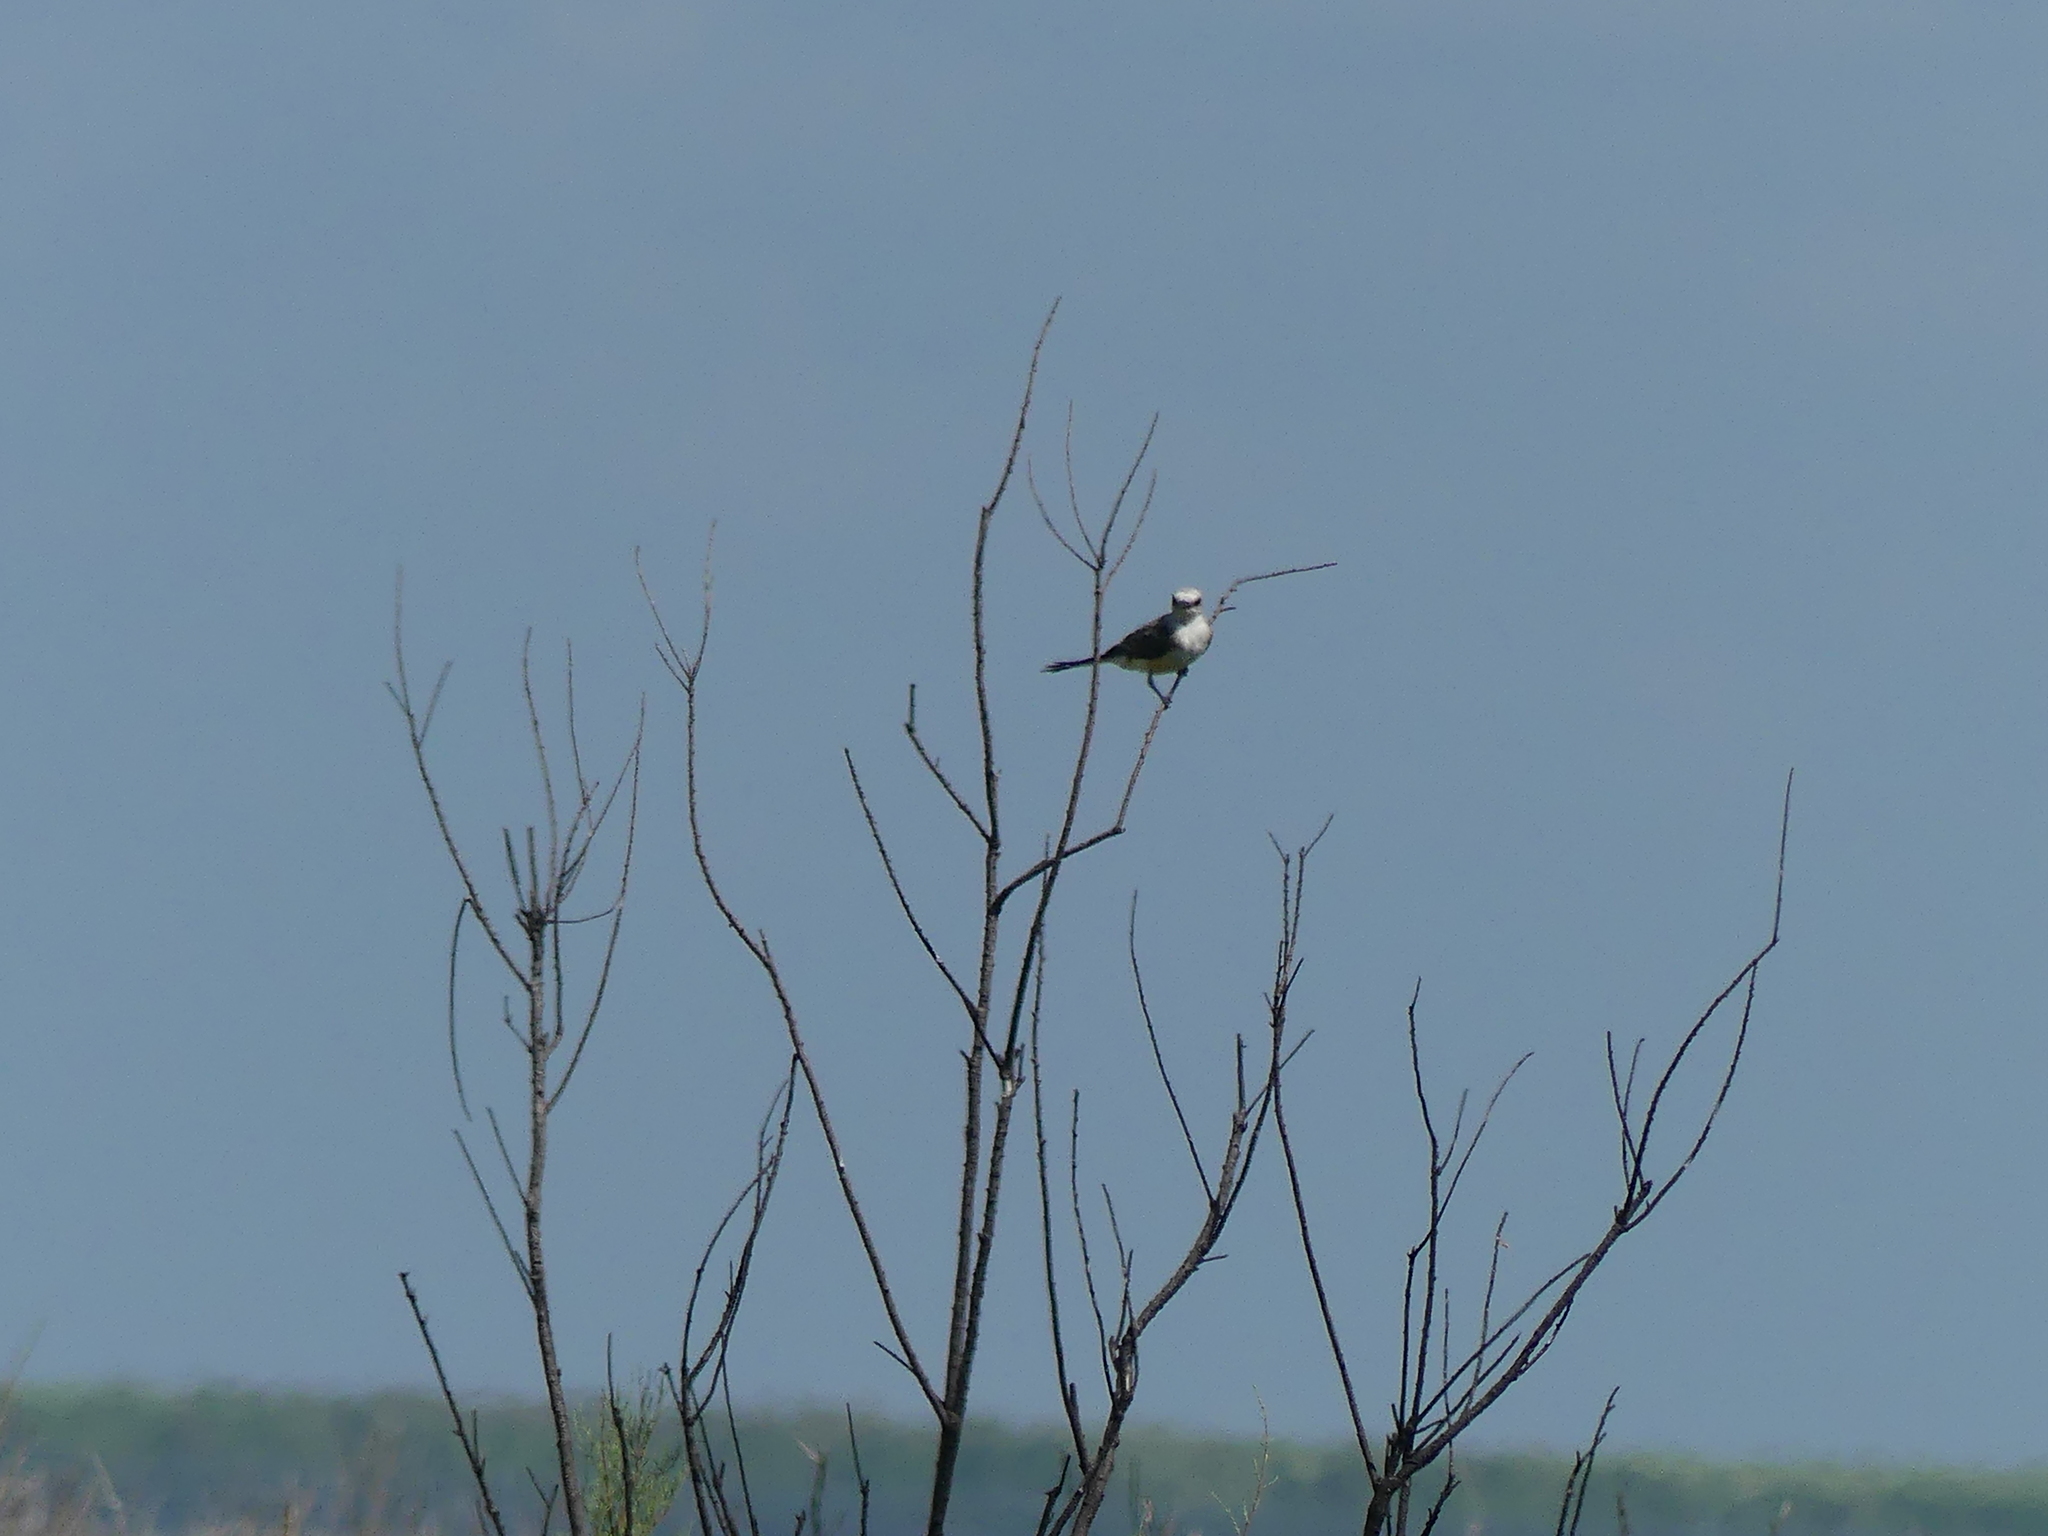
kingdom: Animalia
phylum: Chordata
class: Aves
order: Passeriformes
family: Tyrannidae
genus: Tyrannus
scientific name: Tyrannus forficatus
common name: Scissor-tailed flycatcher
